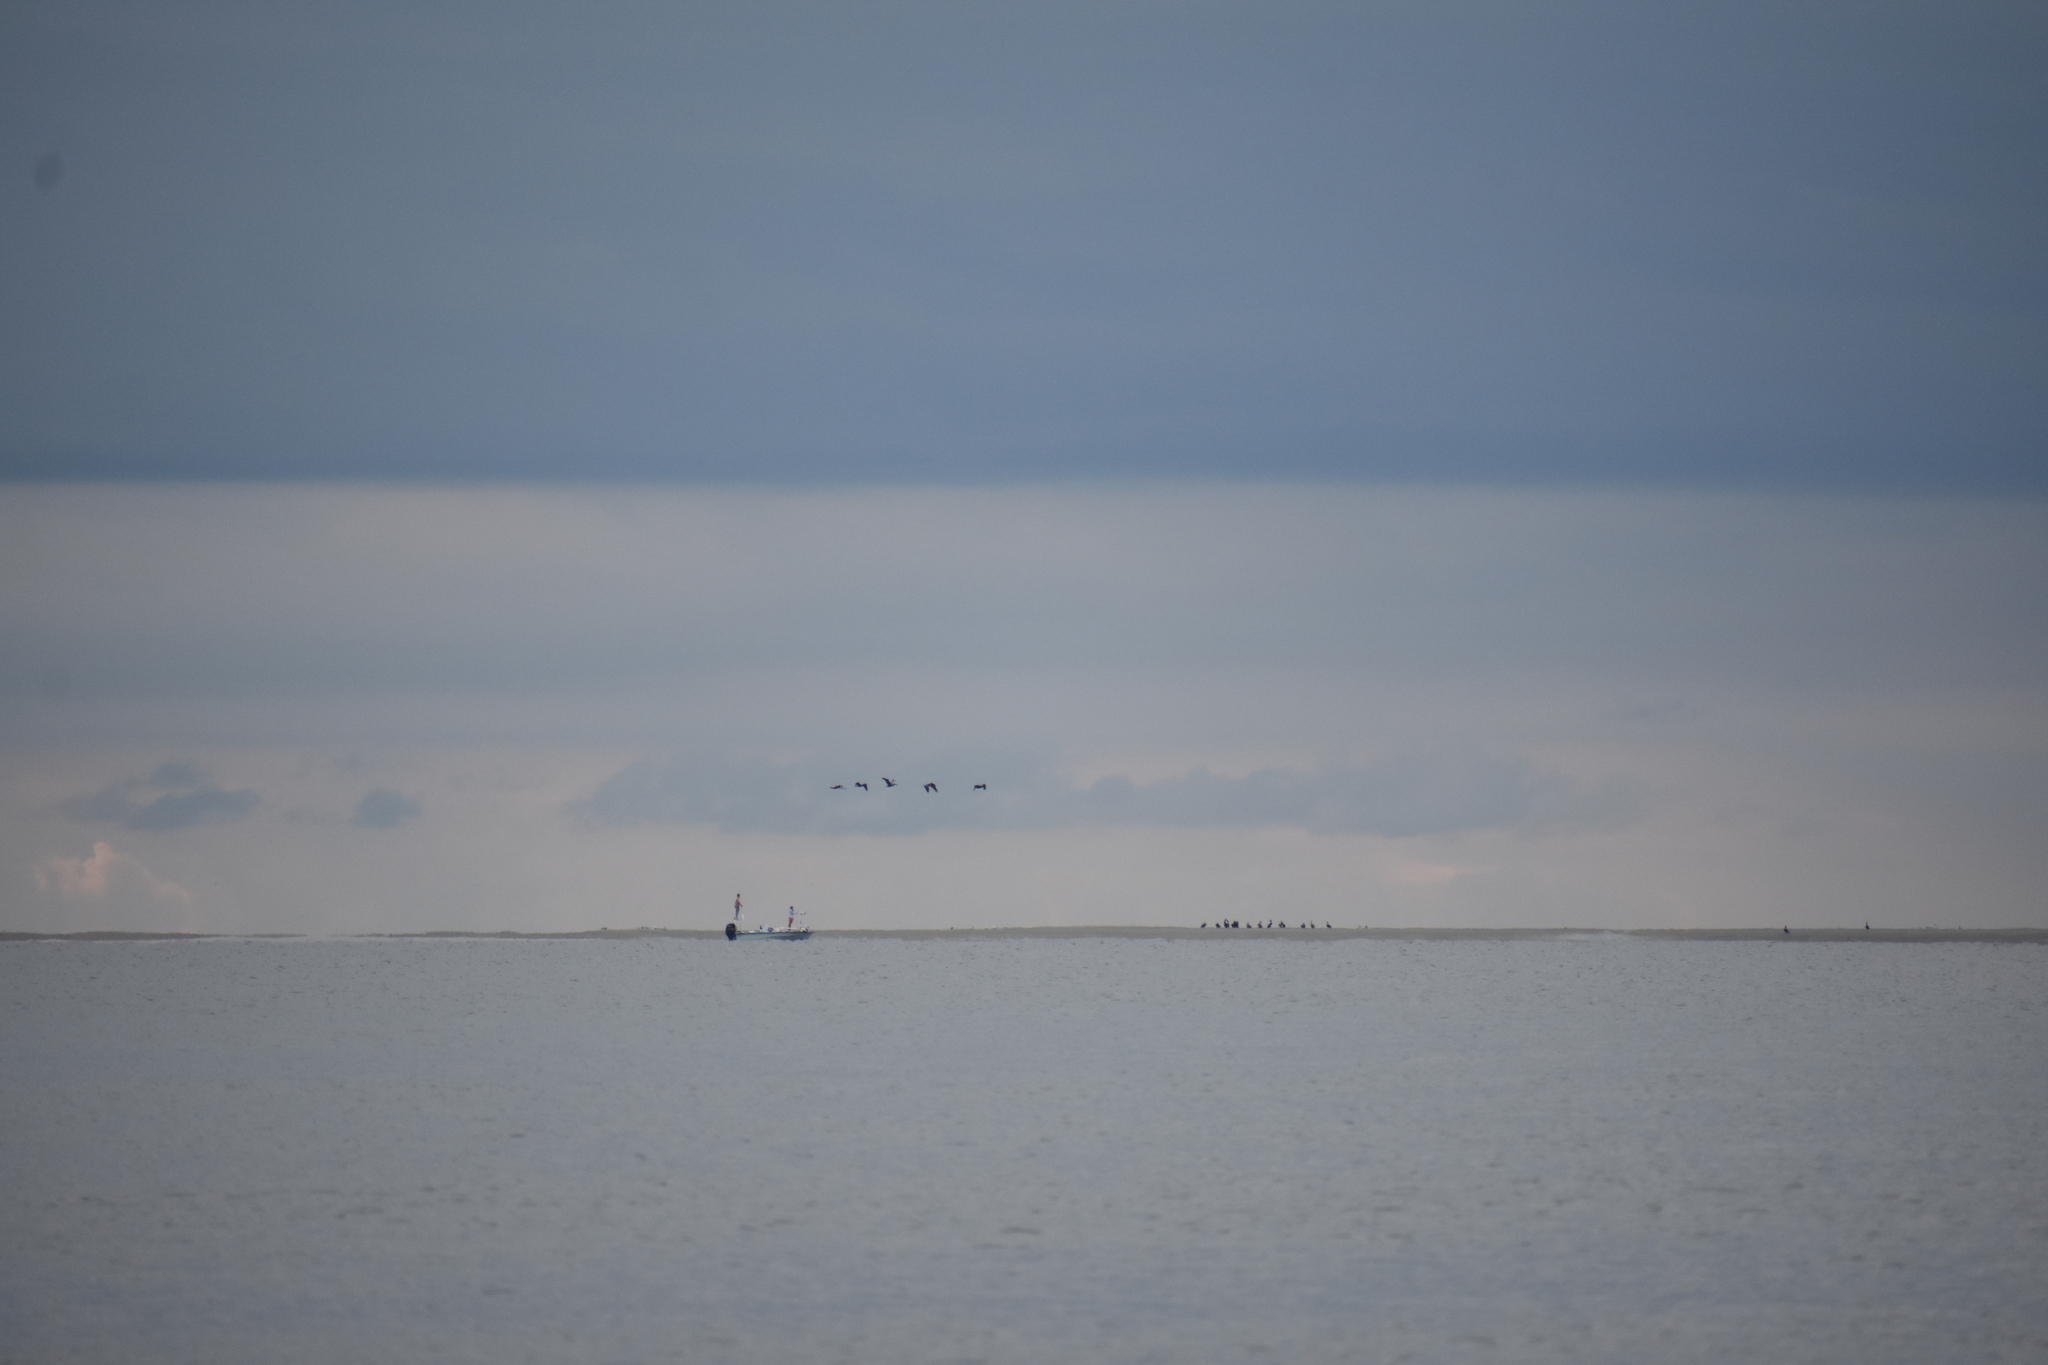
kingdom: Animalia
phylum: Chordata
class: Aves
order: Pelecaniformes
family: Pelecanidae
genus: Pelecanus
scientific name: Pelecanus occidentalis
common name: Brown pelican
